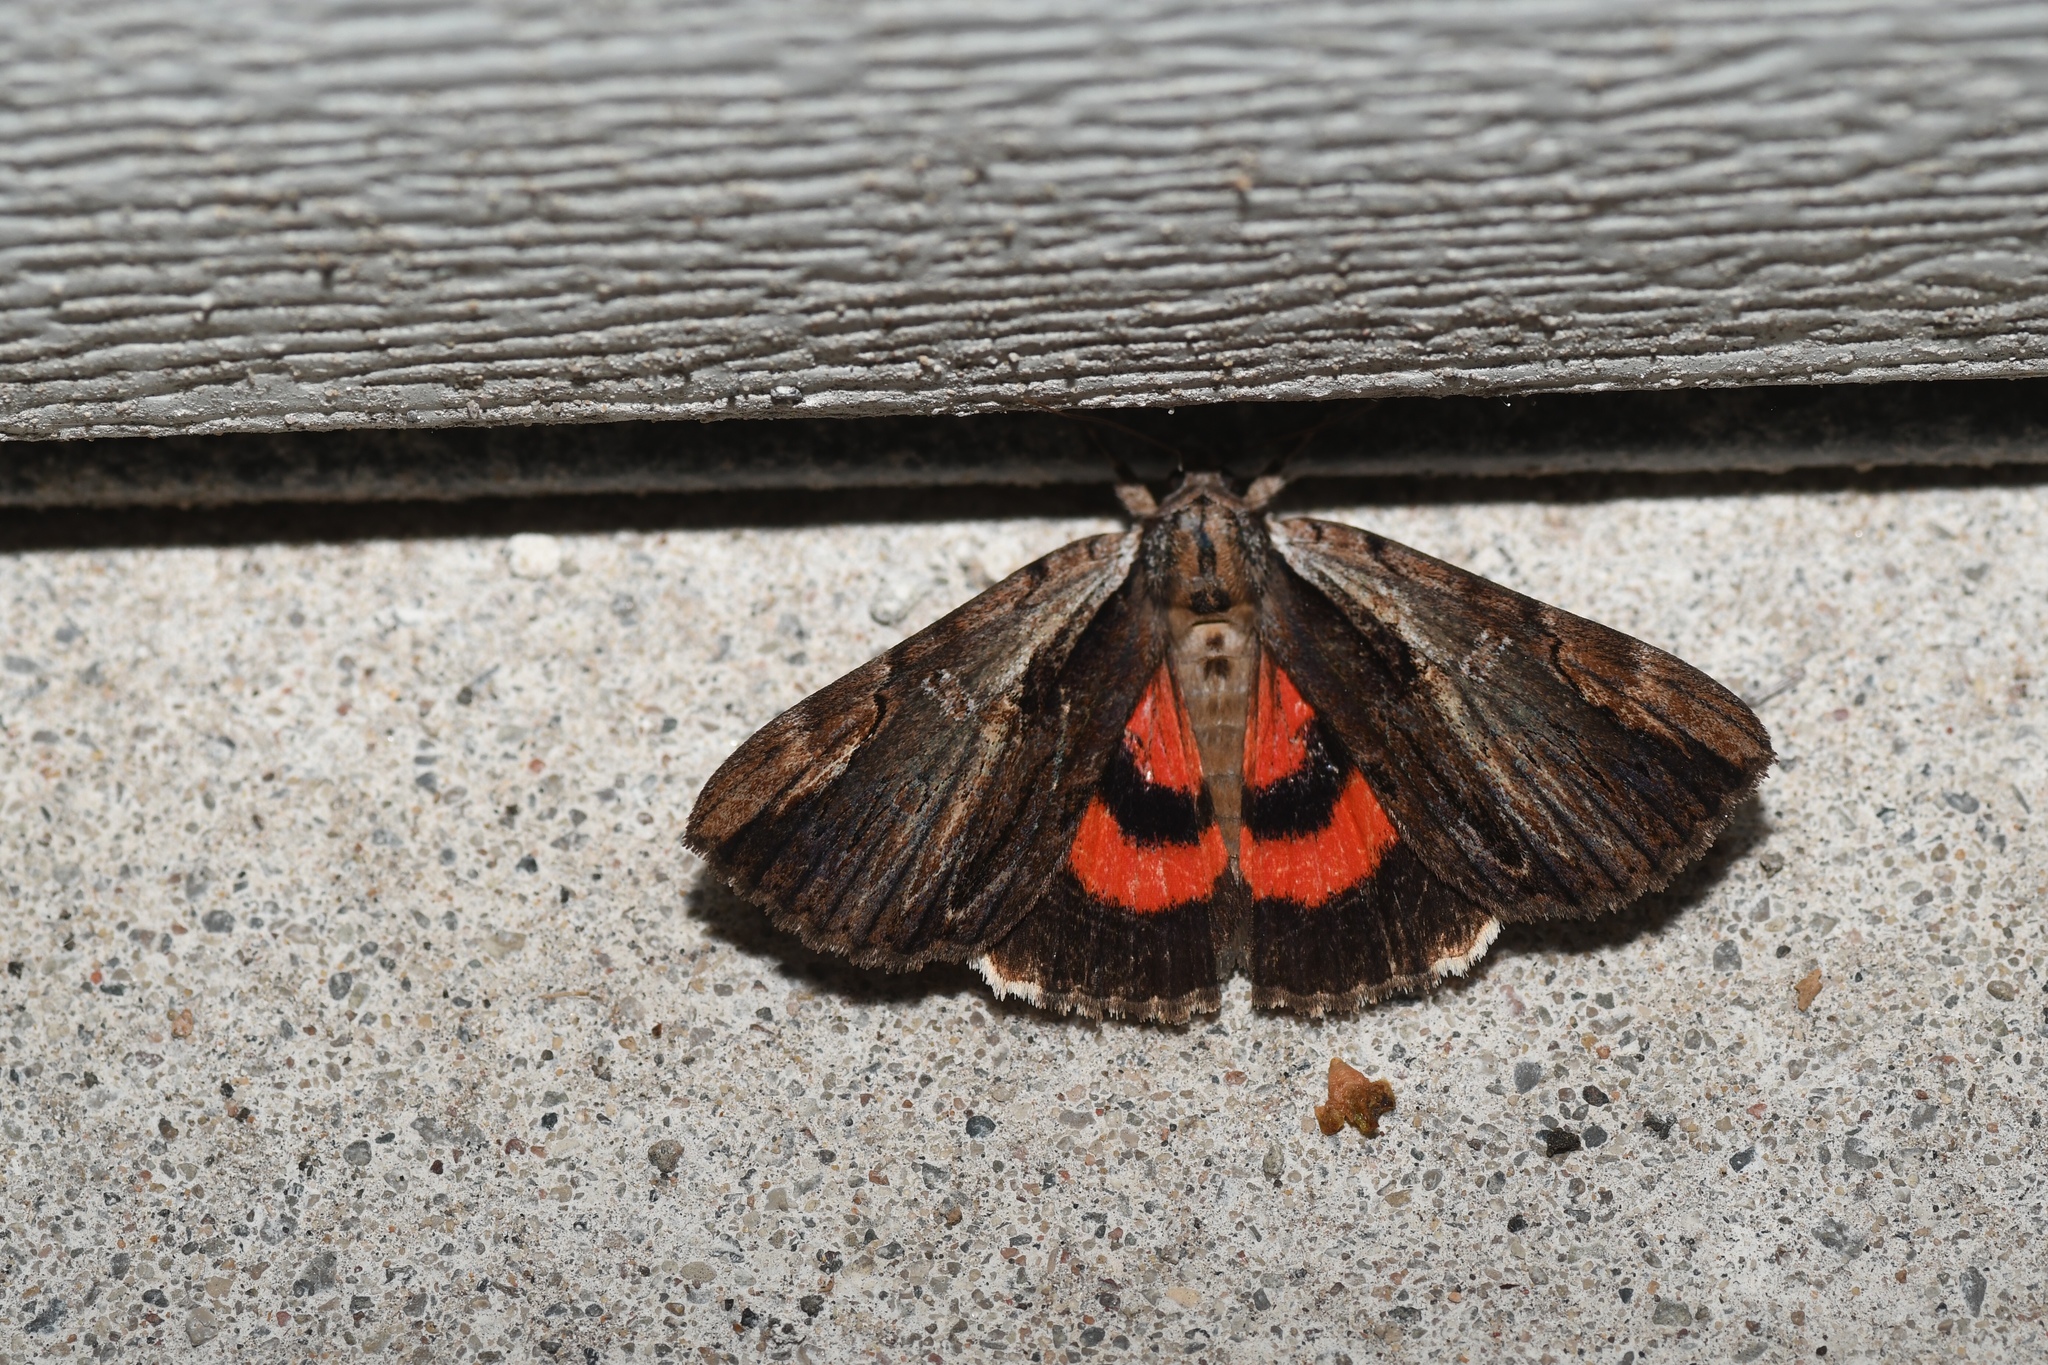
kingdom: Animalia
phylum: Arthropoda
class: Insecta
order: Lepidoptera
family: Erebidae
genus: Catocala
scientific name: Catocala ultronia
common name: Ultronia underwing
